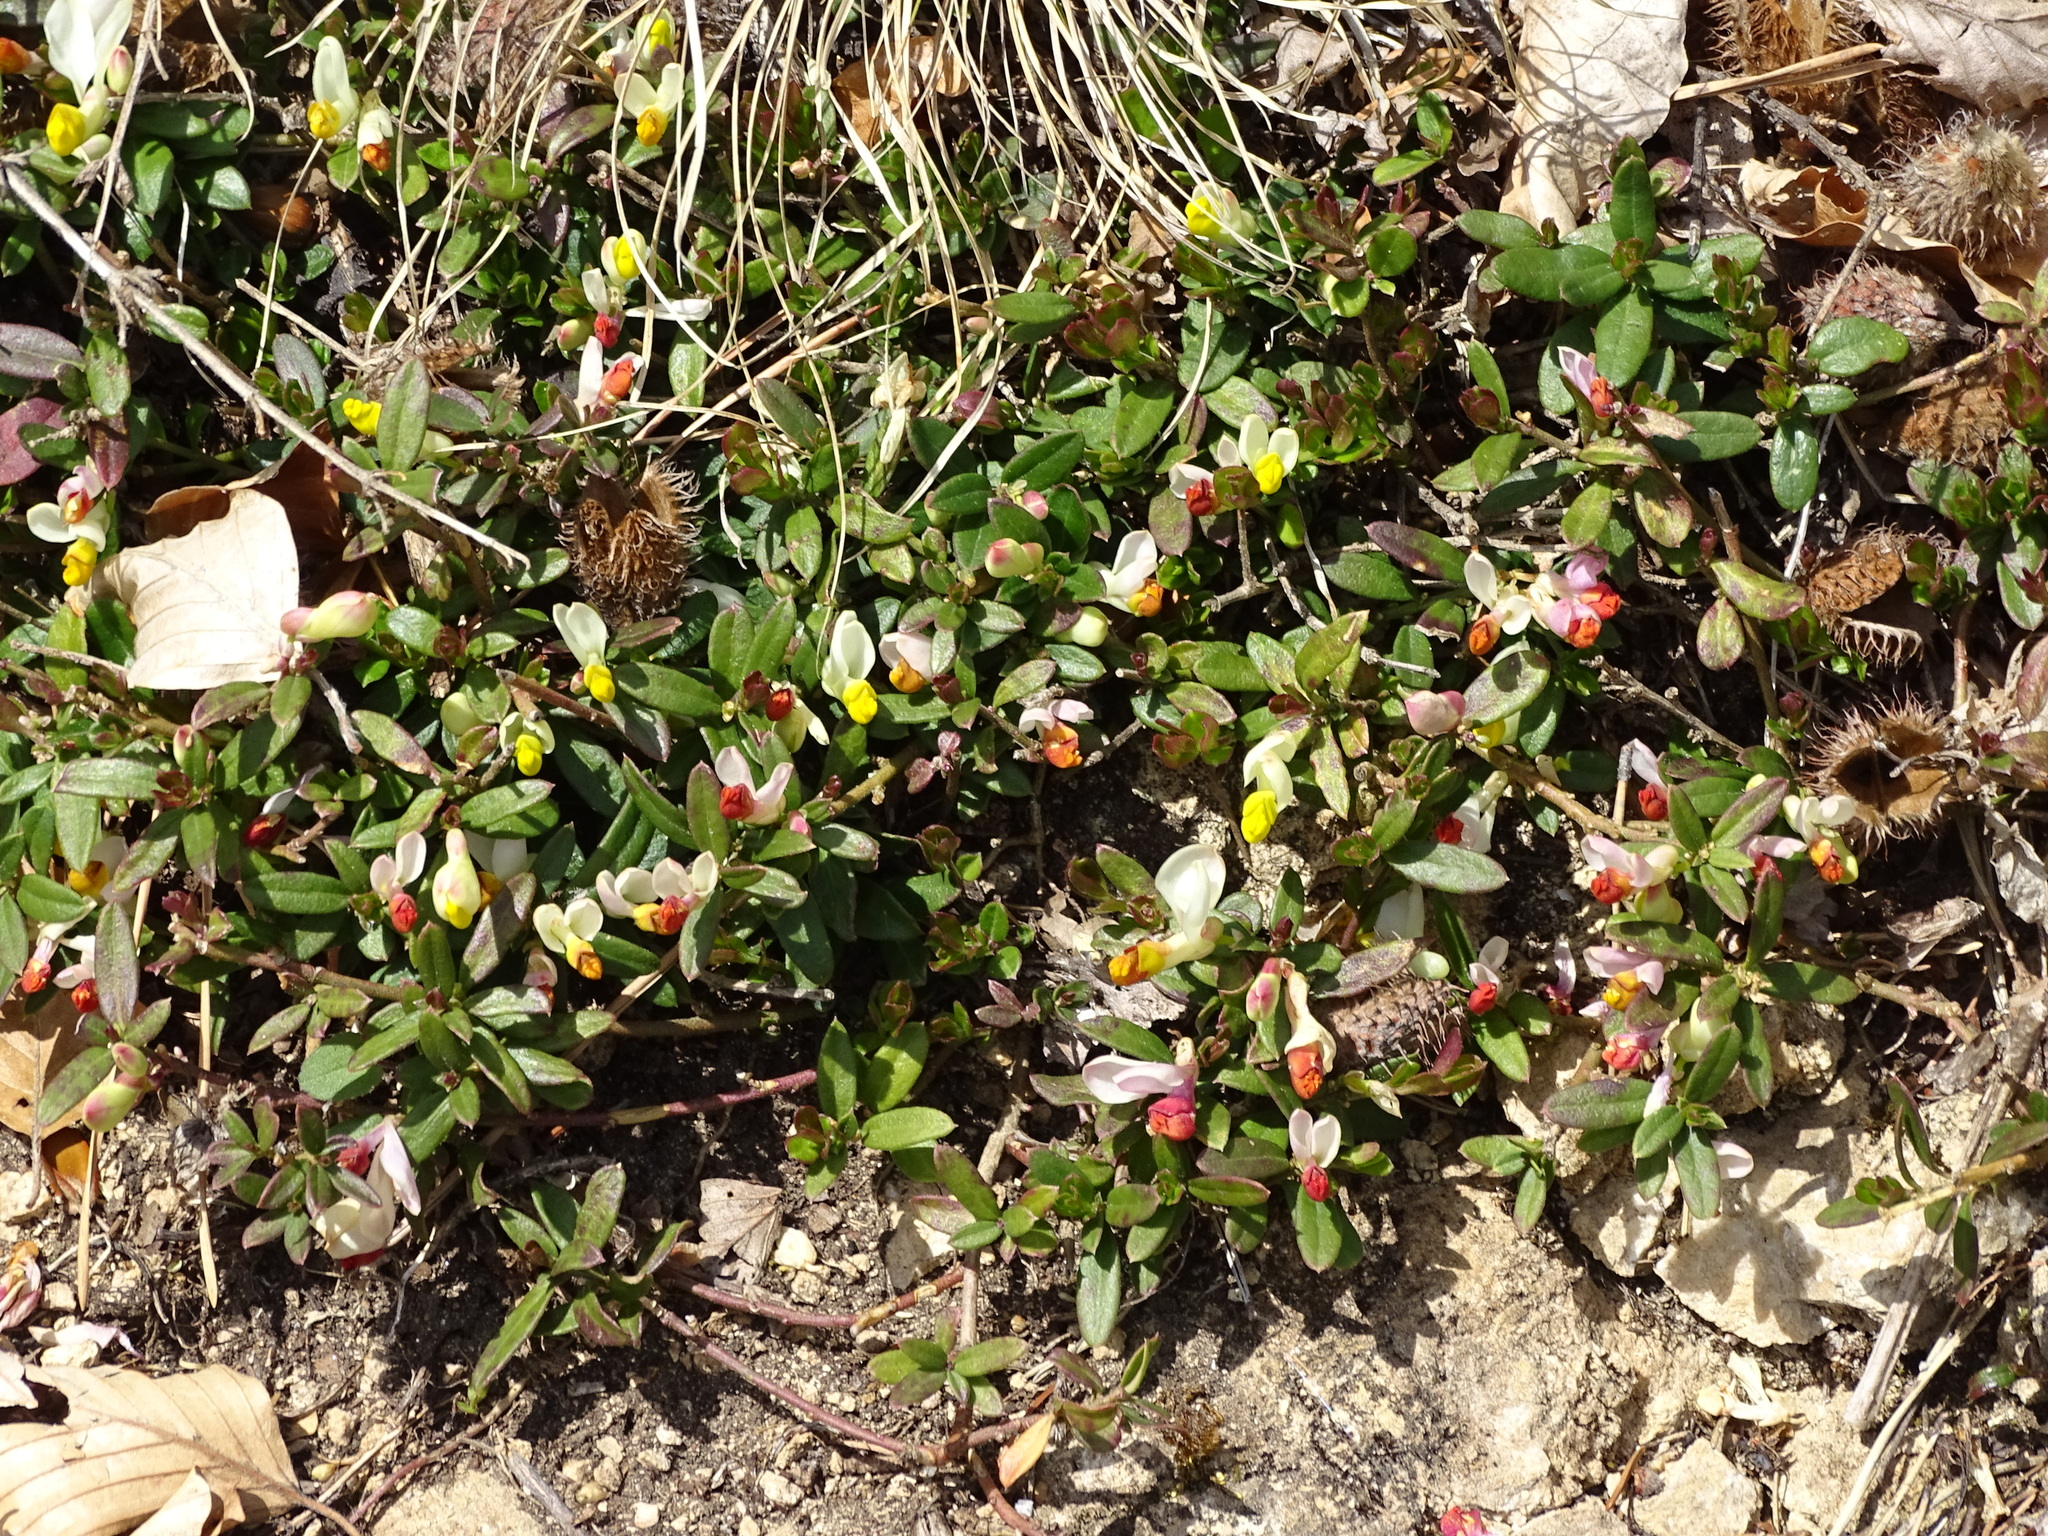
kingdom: Plantae
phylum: Tracheophyta
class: Magnoliopsida
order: Fabales
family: Polygalaceae
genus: Polygaloides
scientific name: Polygaloides chamaebuxus
